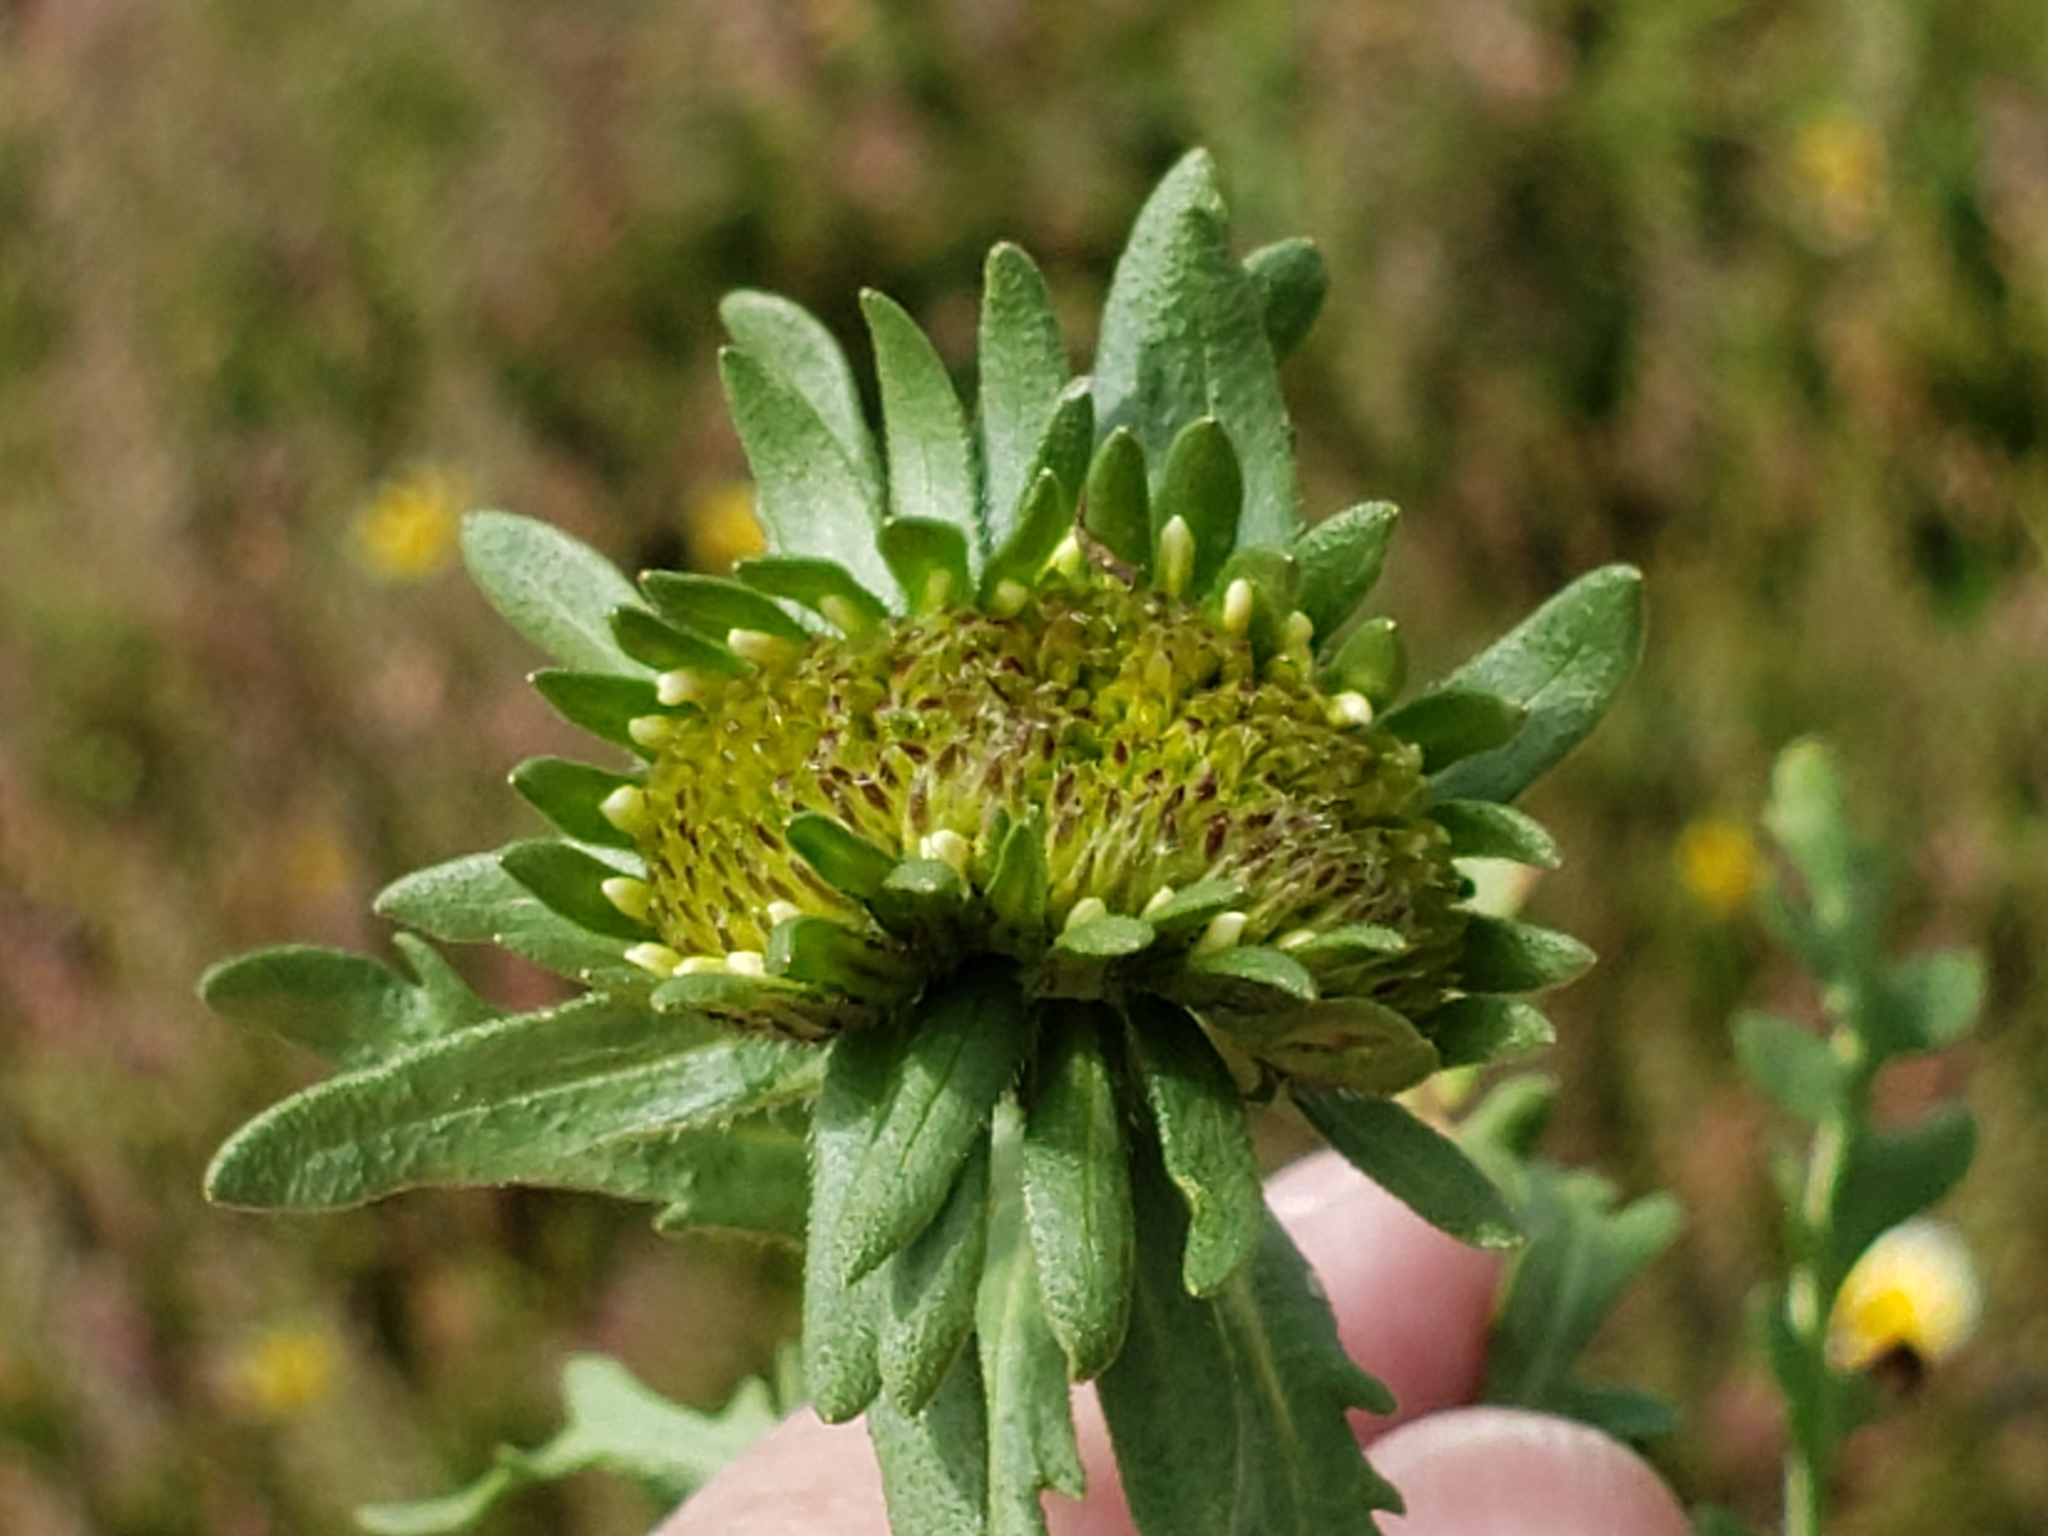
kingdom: Plantae
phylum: Tracheophyta
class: Magnoliopsida
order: Asterales
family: Asteraceae
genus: Layia
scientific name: Layia chrysanthemoides
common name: Smooth layia
